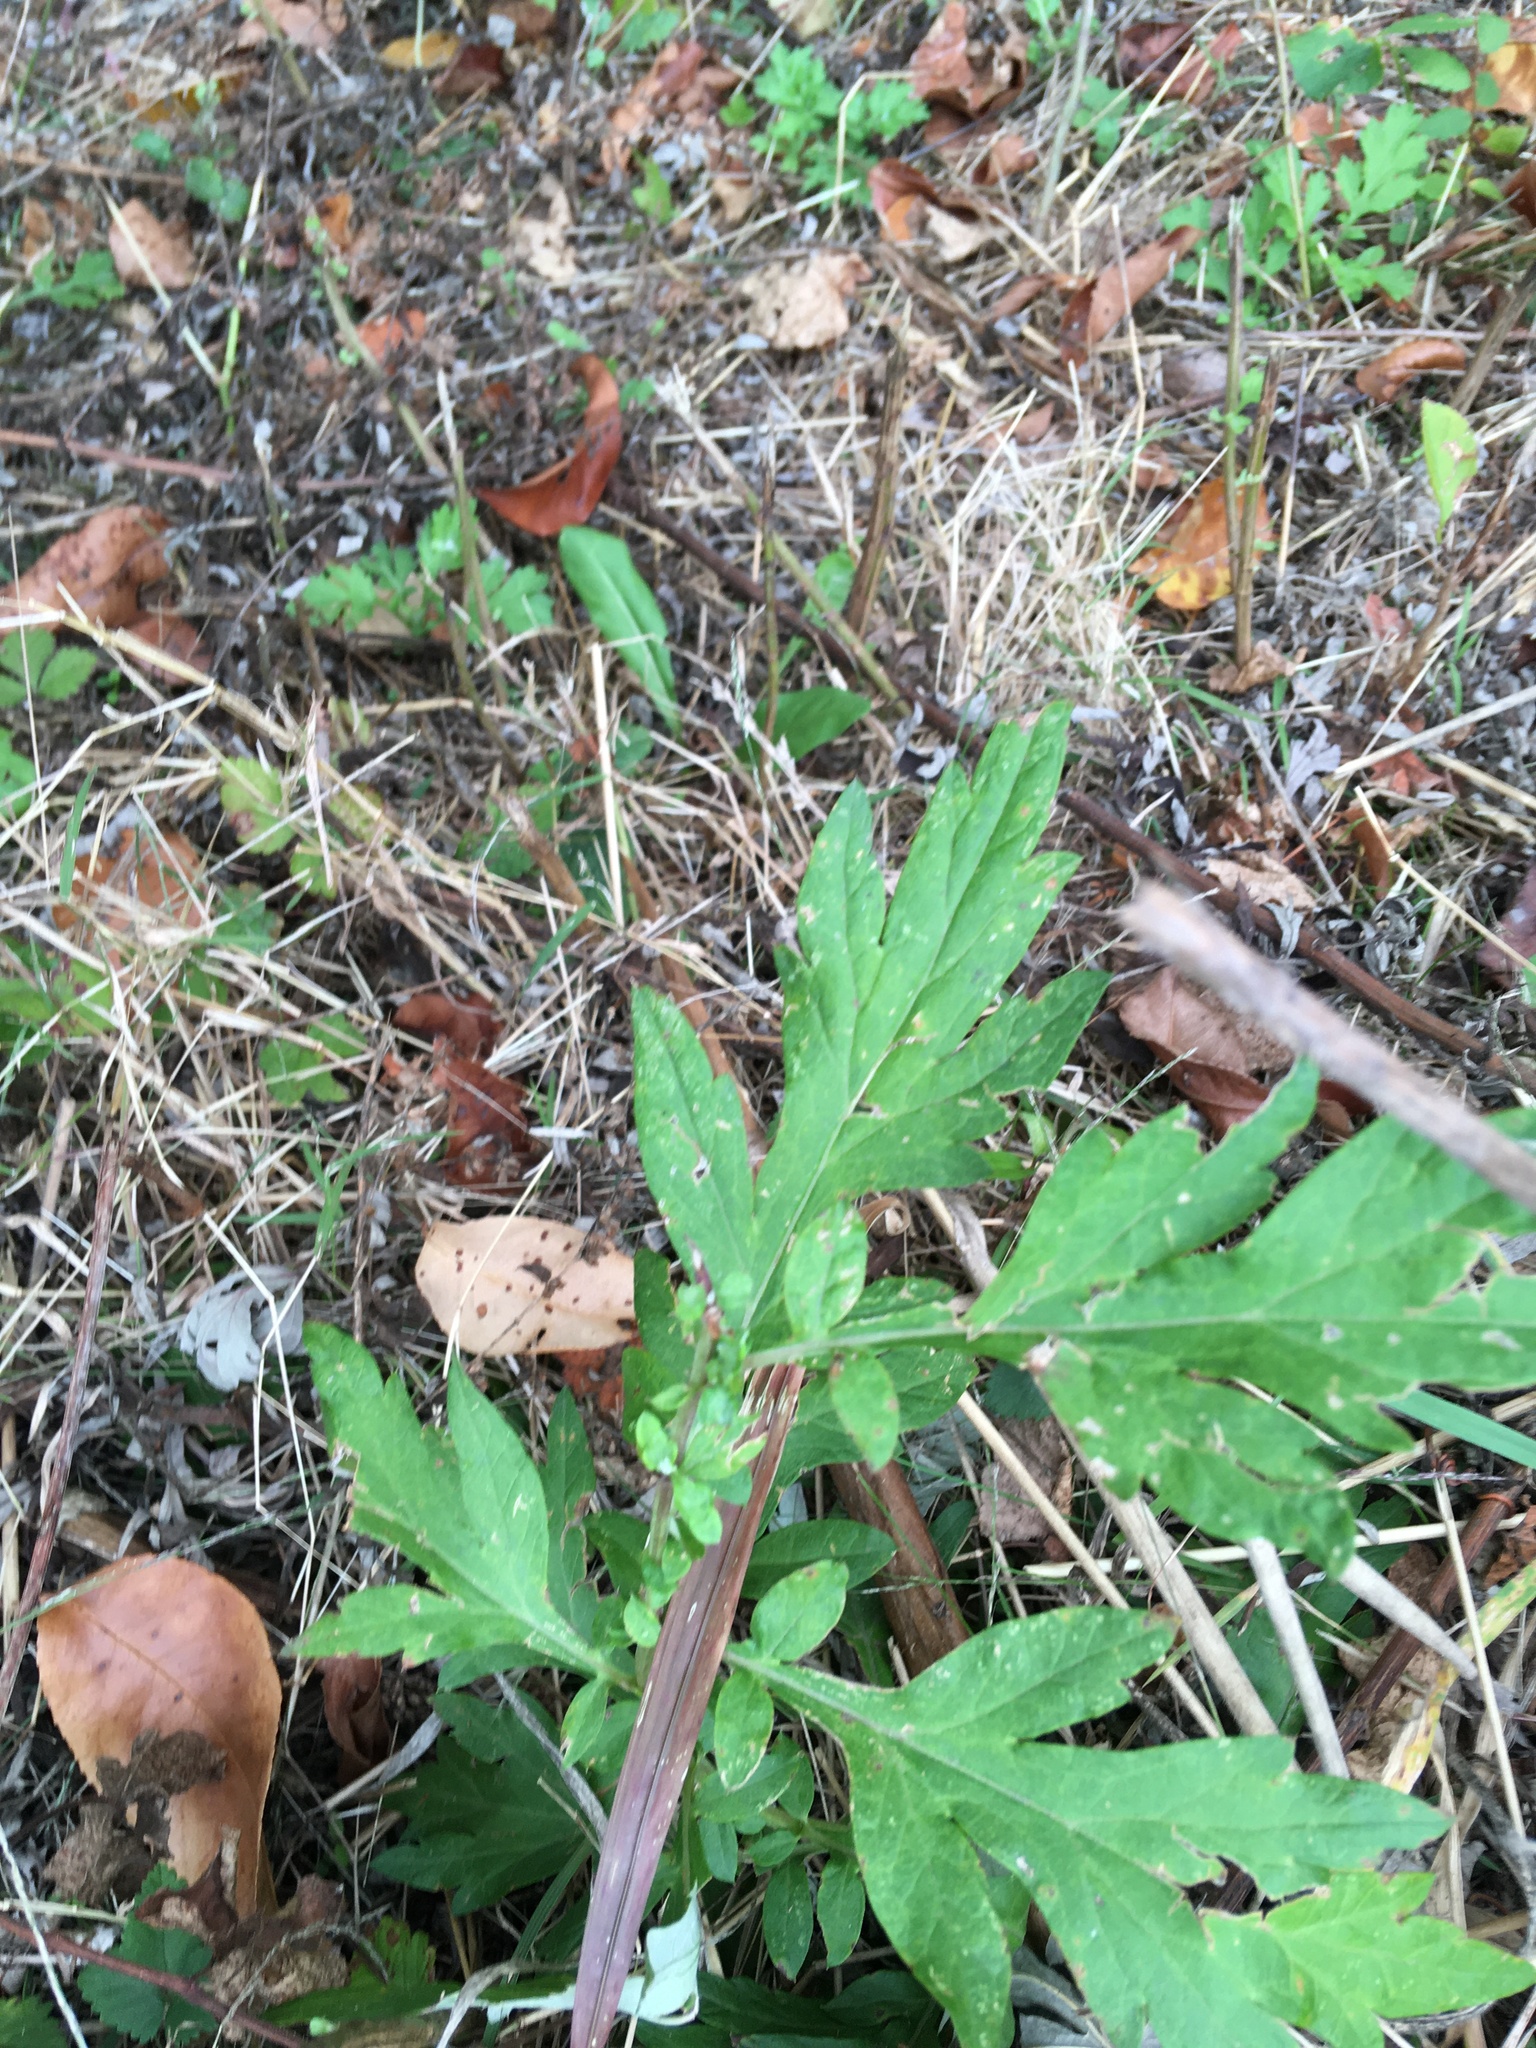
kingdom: Plantae
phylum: Tracheophyta
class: Magnoliopsida
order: Asterales
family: Asteraceae
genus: Artemisia
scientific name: Artemisia vulgaris
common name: Mugwort
